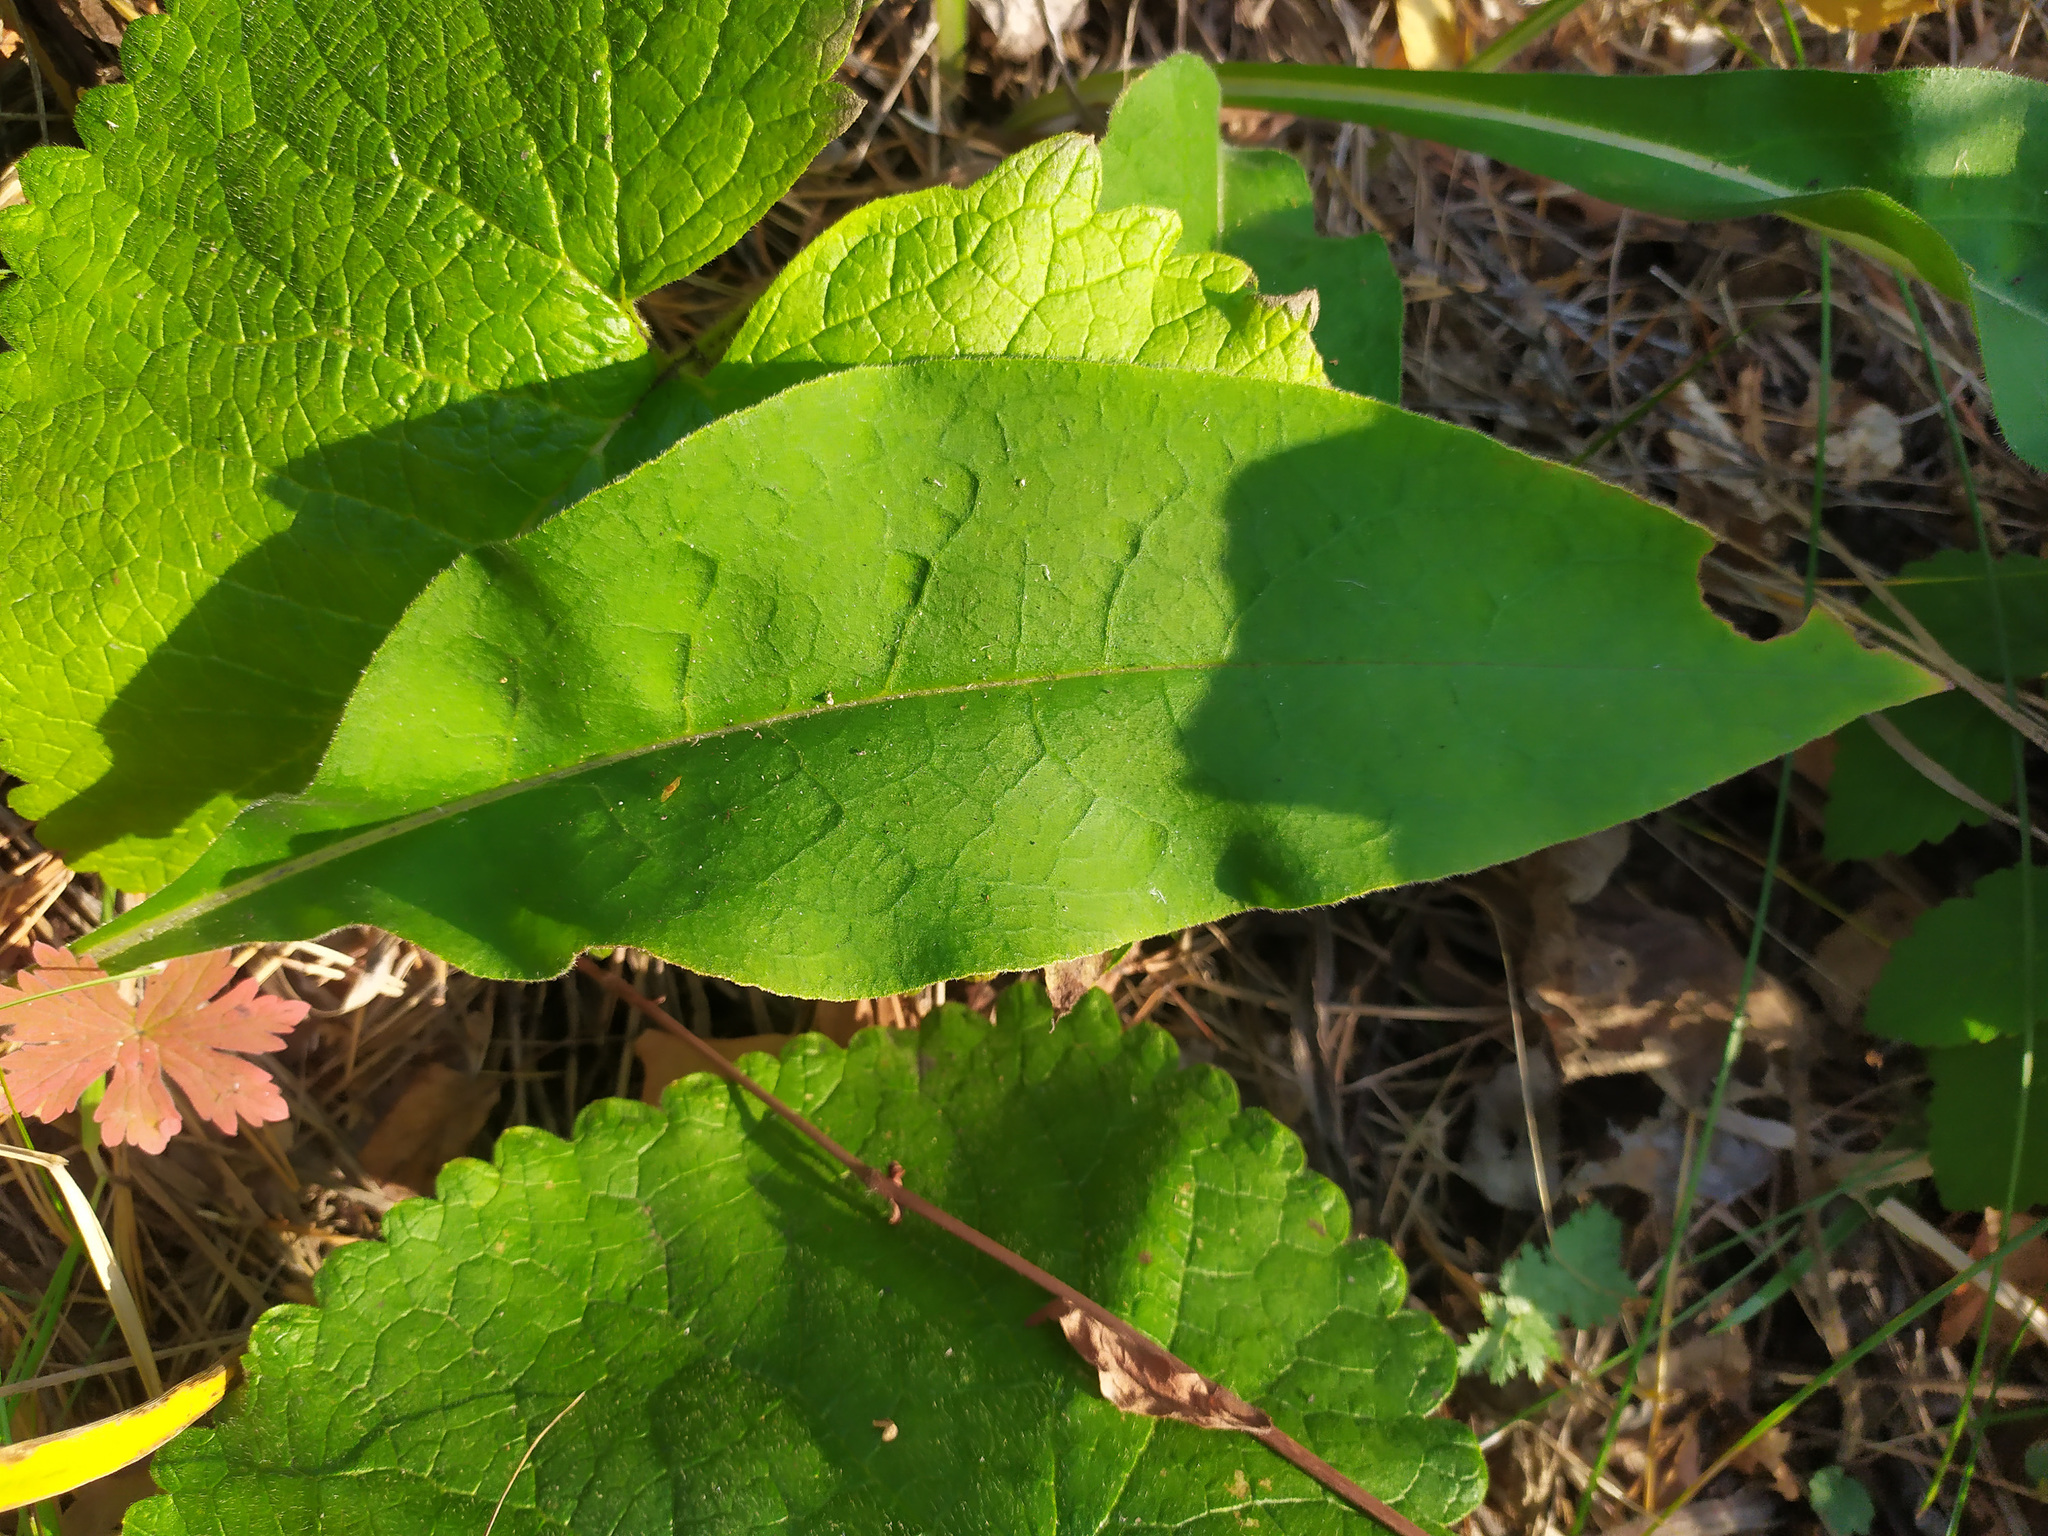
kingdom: Plantae
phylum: Tracheophyta
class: Magnoliopsida
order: Boraginales
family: Boraginaceae
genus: Pulmonaria
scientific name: Pulmonaria mollis
